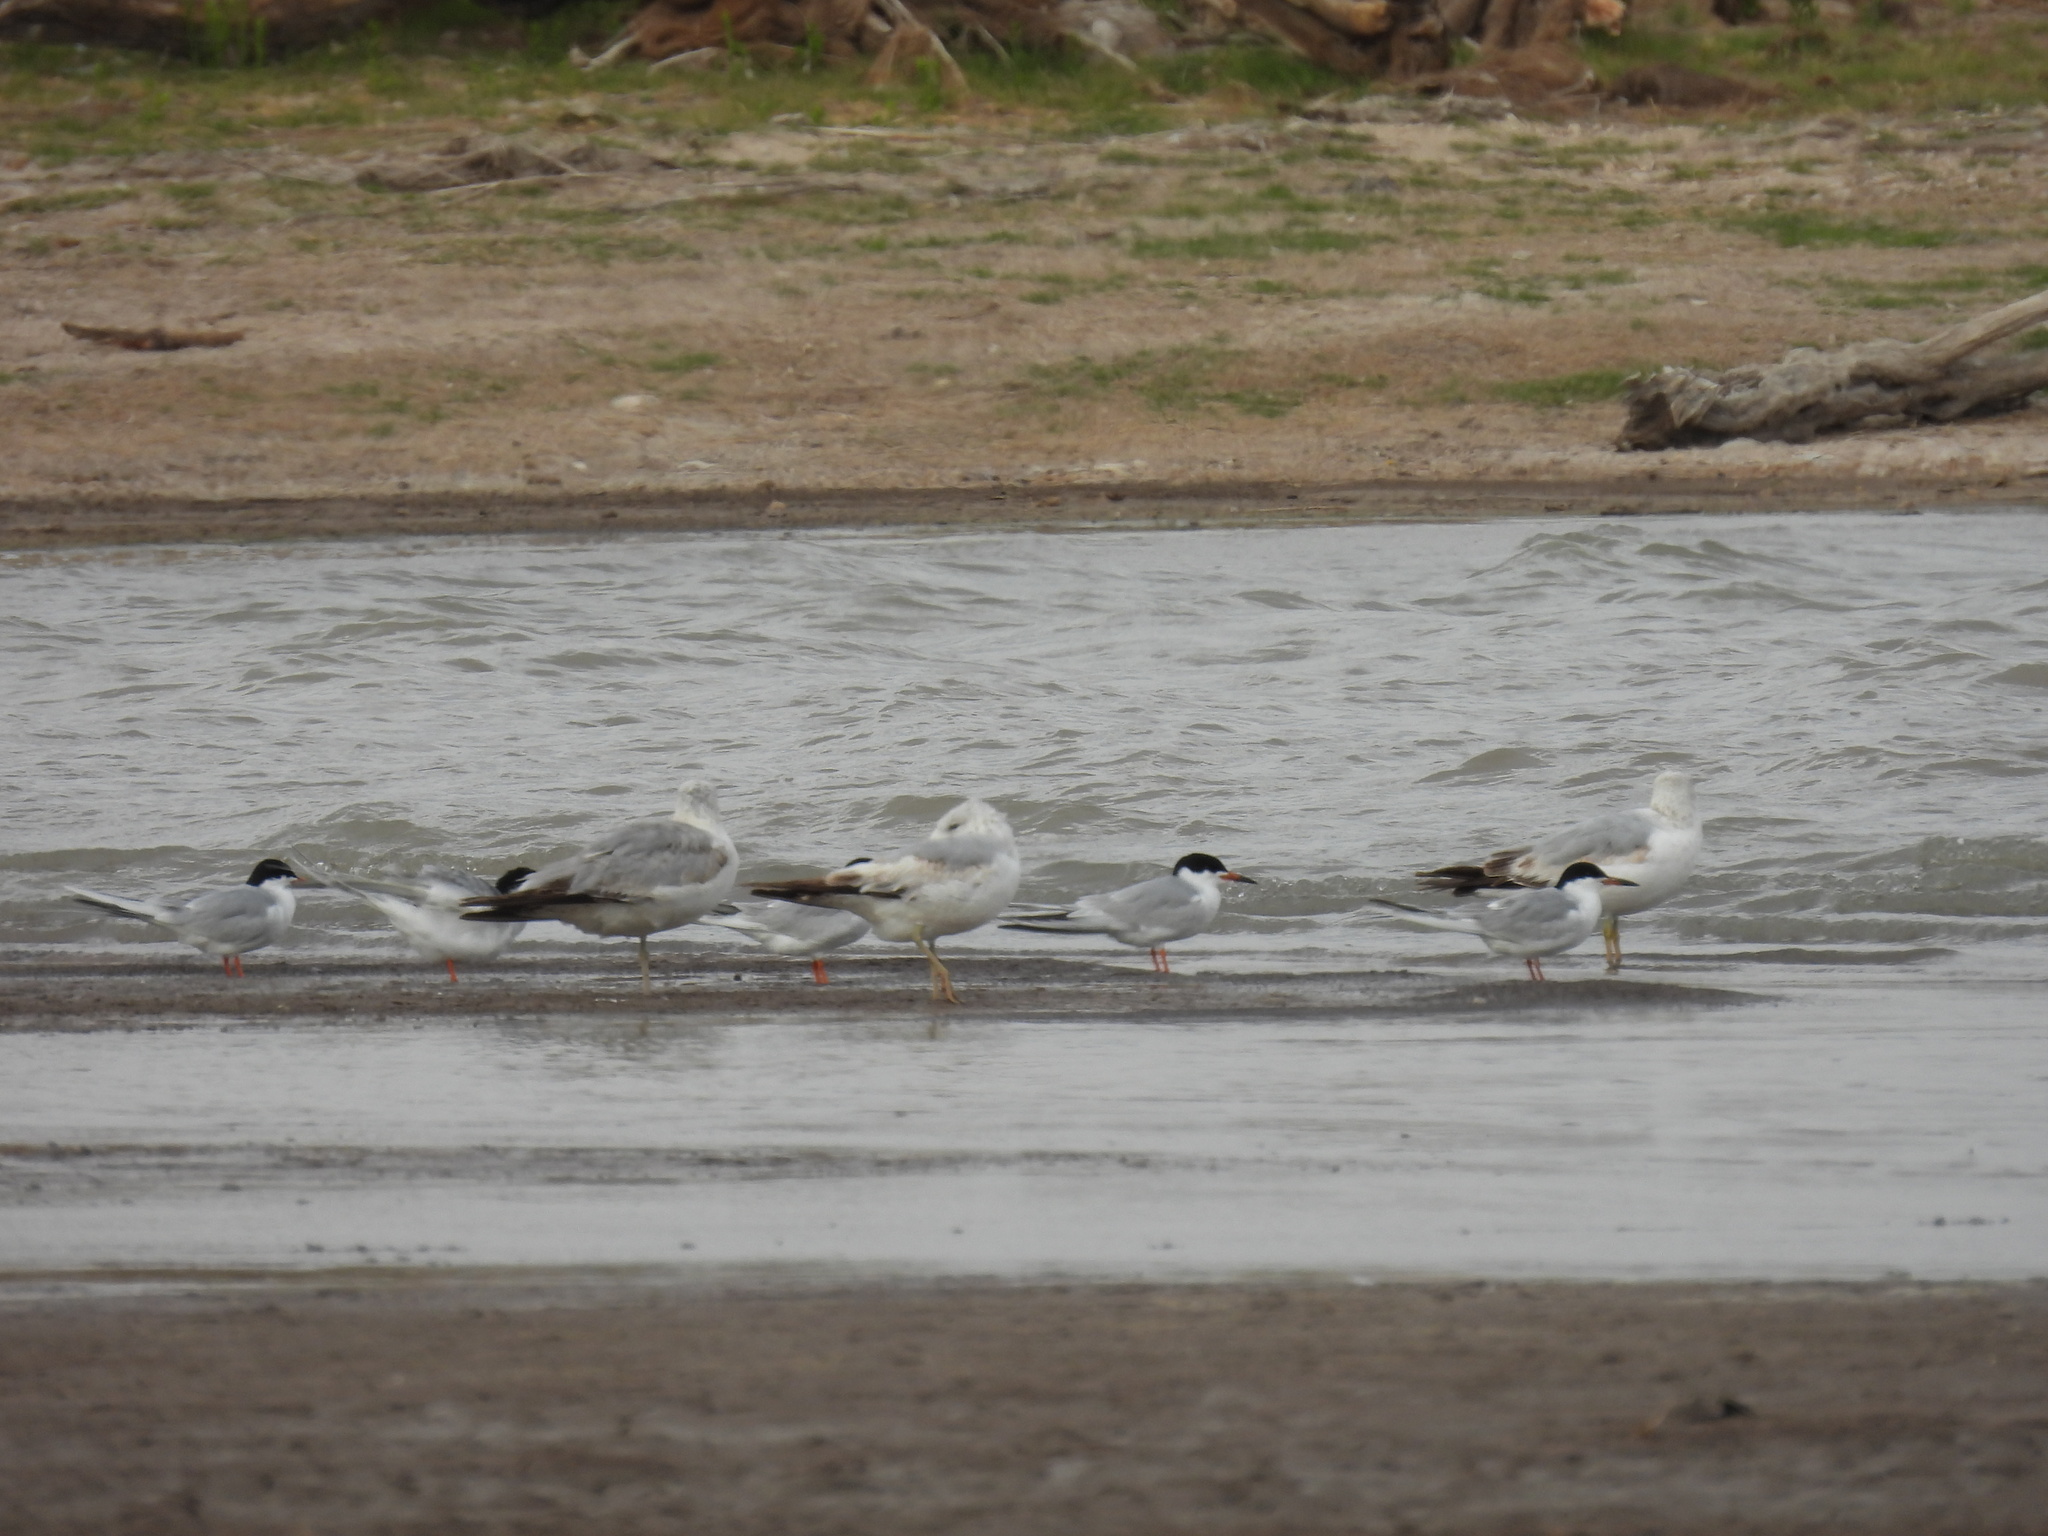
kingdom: Animalia
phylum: Chordata
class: Aves
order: Charadriiformes
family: Laridae
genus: Sterna
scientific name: Sterna forsteri
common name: Forster's tern
